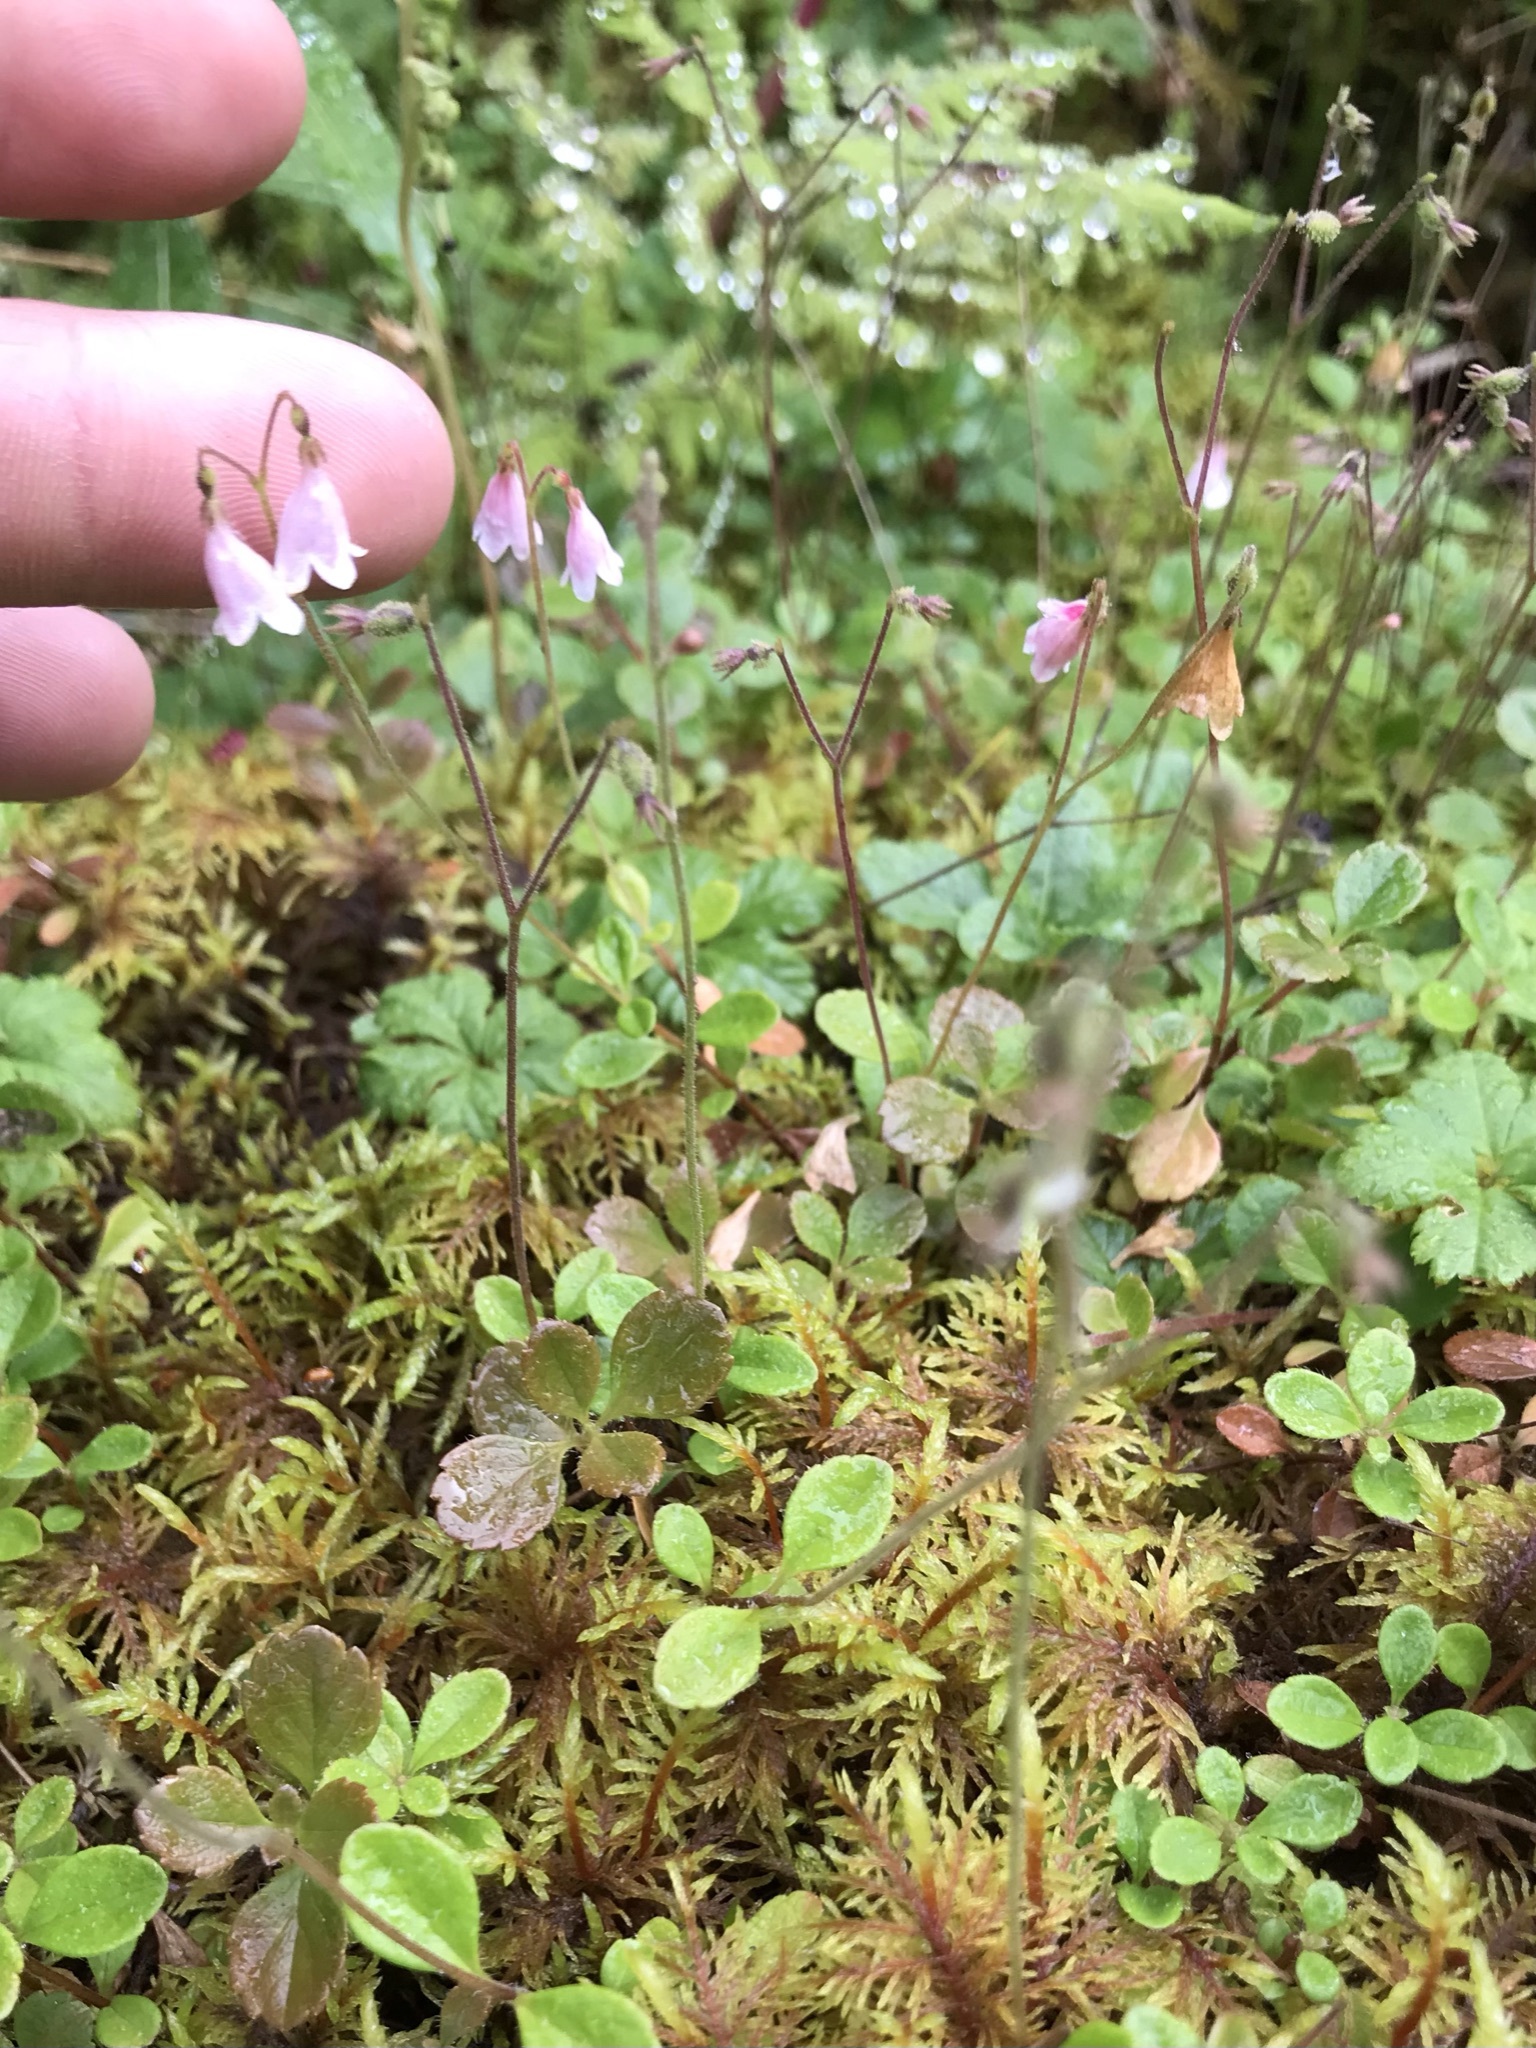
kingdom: Plantae
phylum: Tracheophyta
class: Magnoliopsida
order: Dipsacales
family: Caprifoliaceae
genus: Linnaea
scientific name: Linnaea borealis
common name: Twinflower
